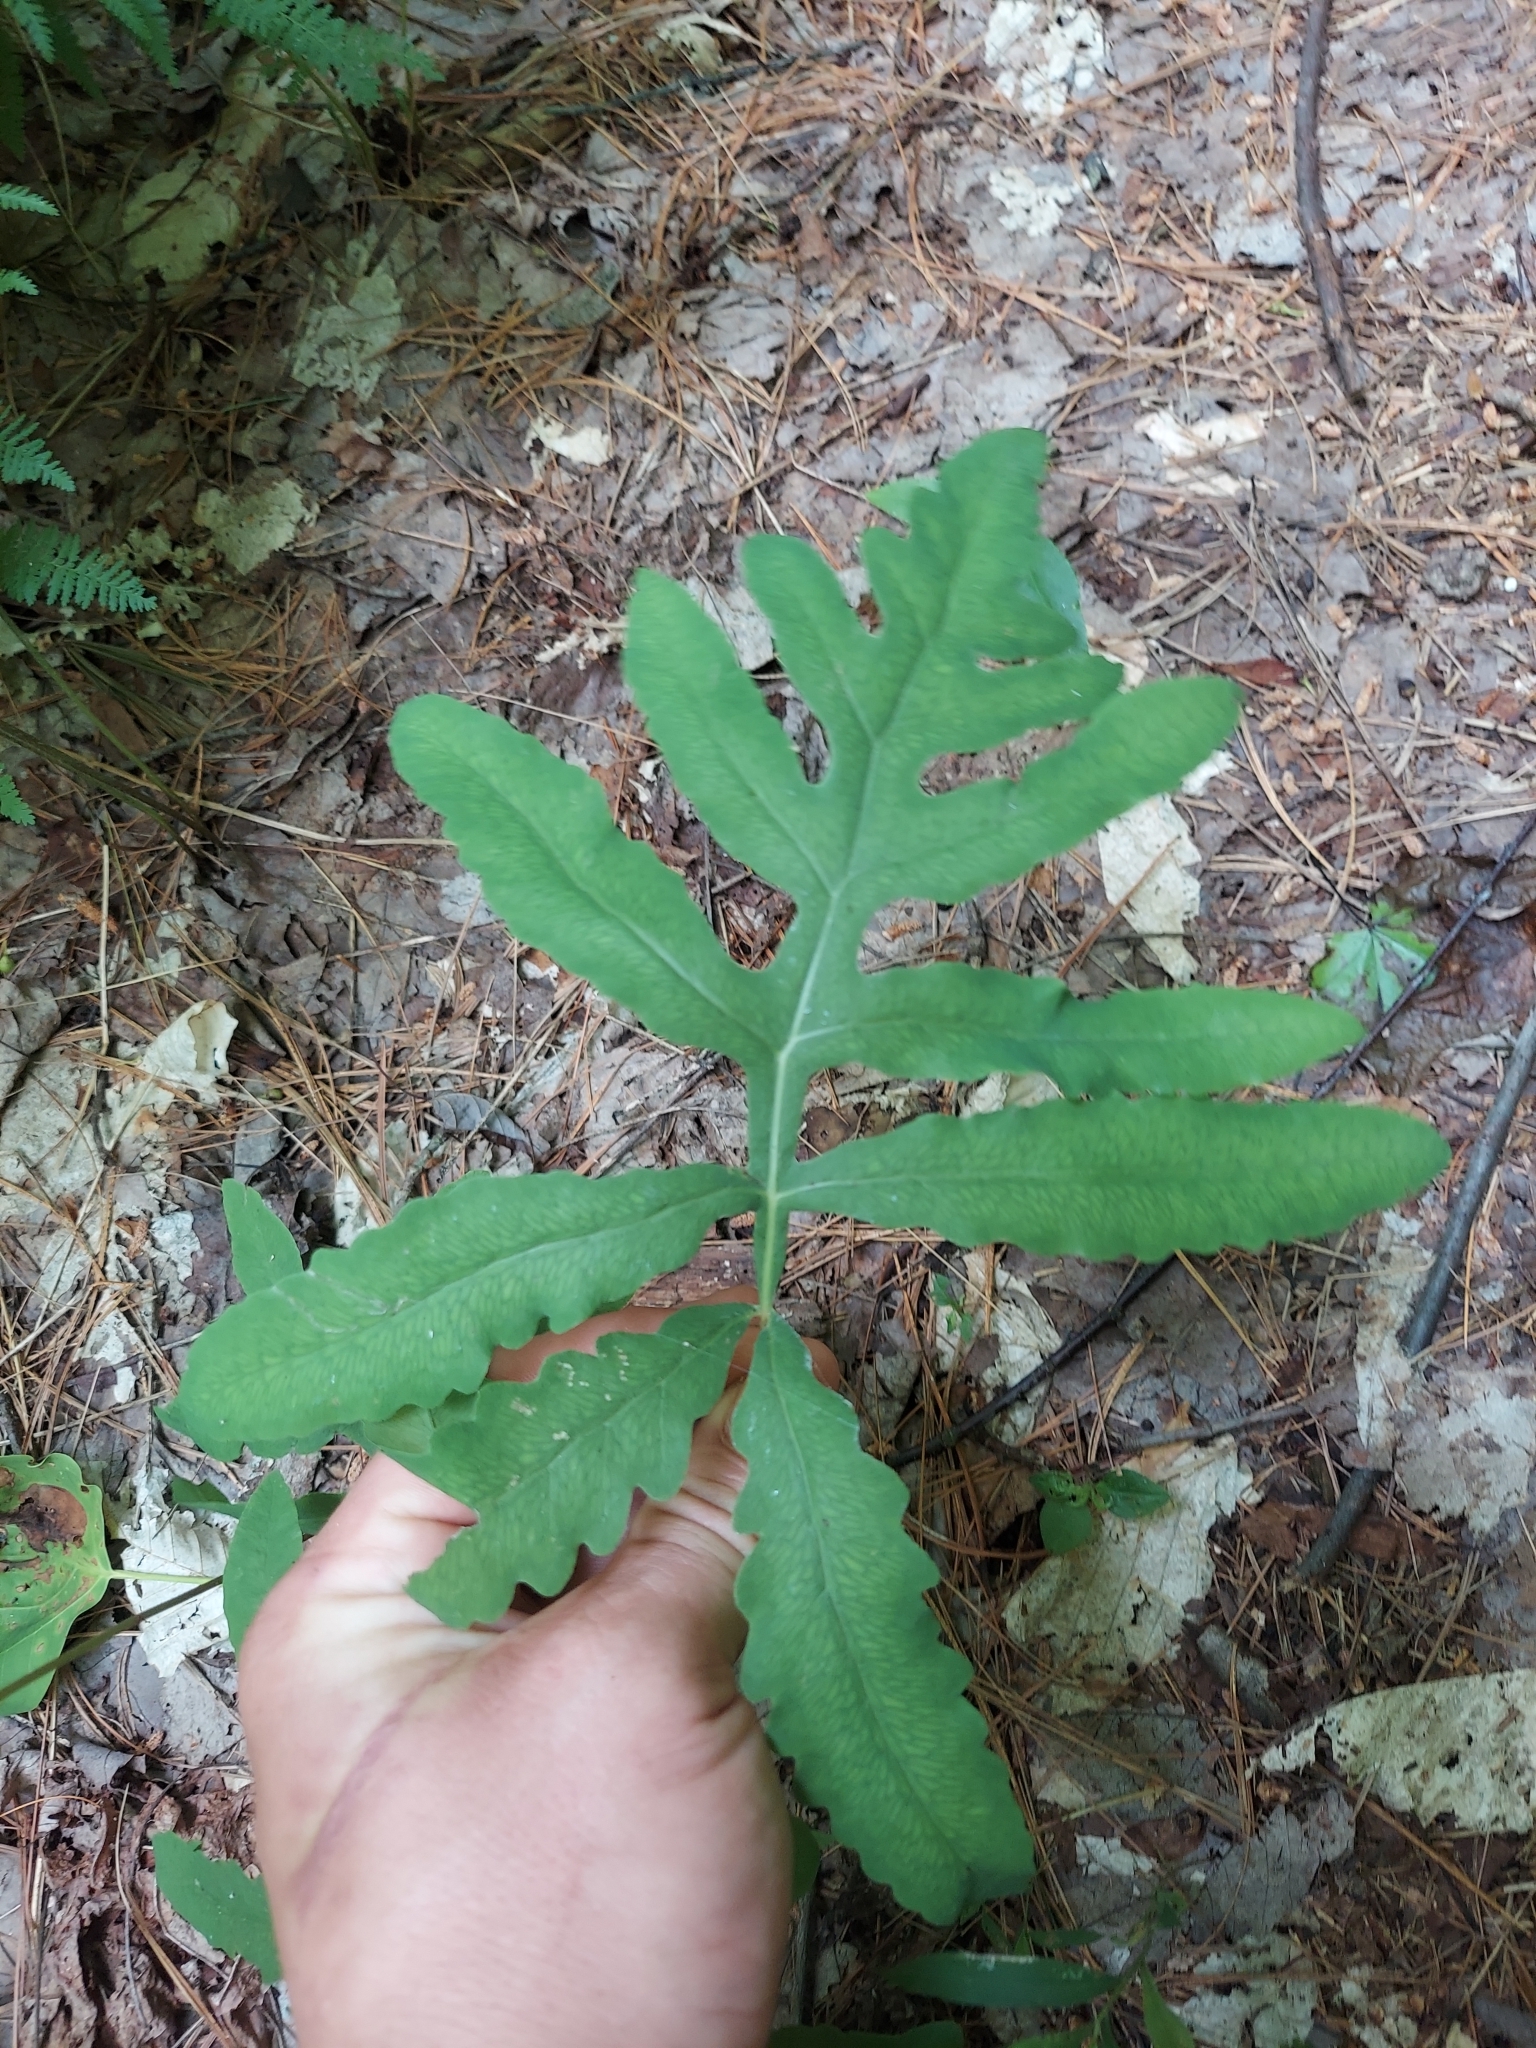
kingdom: Plantae
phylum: Tracheophyta
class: Polypodiopsida
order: Polypodiales
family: Onocleaceae
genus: Onoclea
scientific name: Onoclea sensibilis
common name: Sensitive fern
